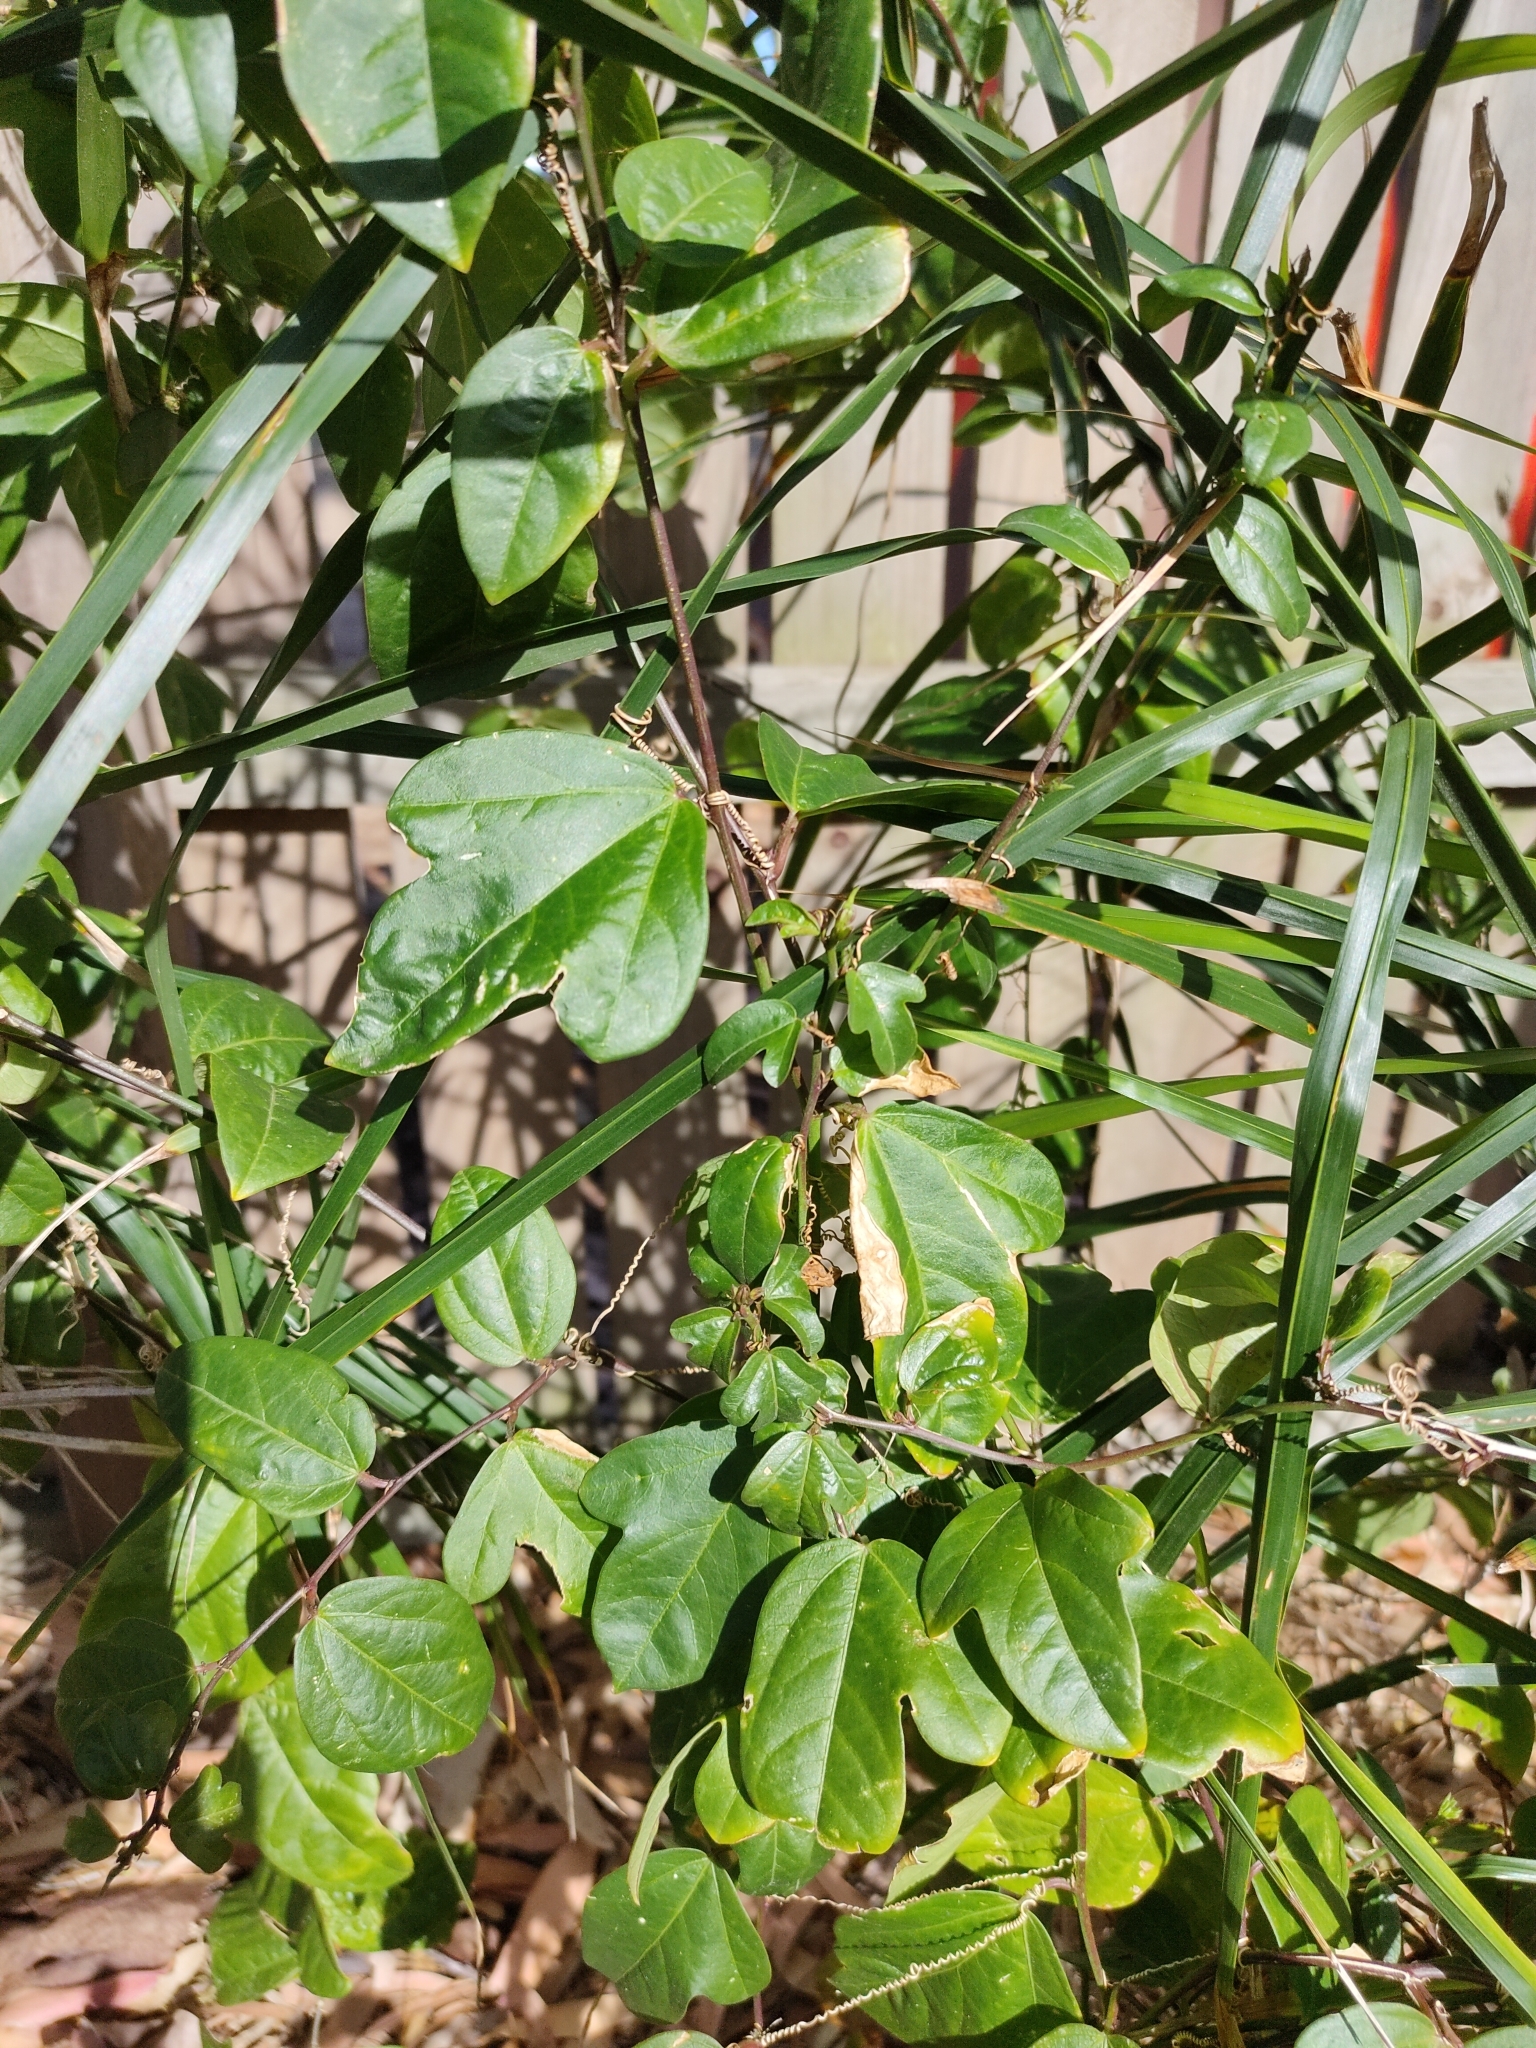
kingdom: Plantae
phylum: Tracheophyta
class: Magnoliopsida
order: Malpighiales
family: Passifloraceae
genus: Passiflora
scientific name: Passiflora pallida
